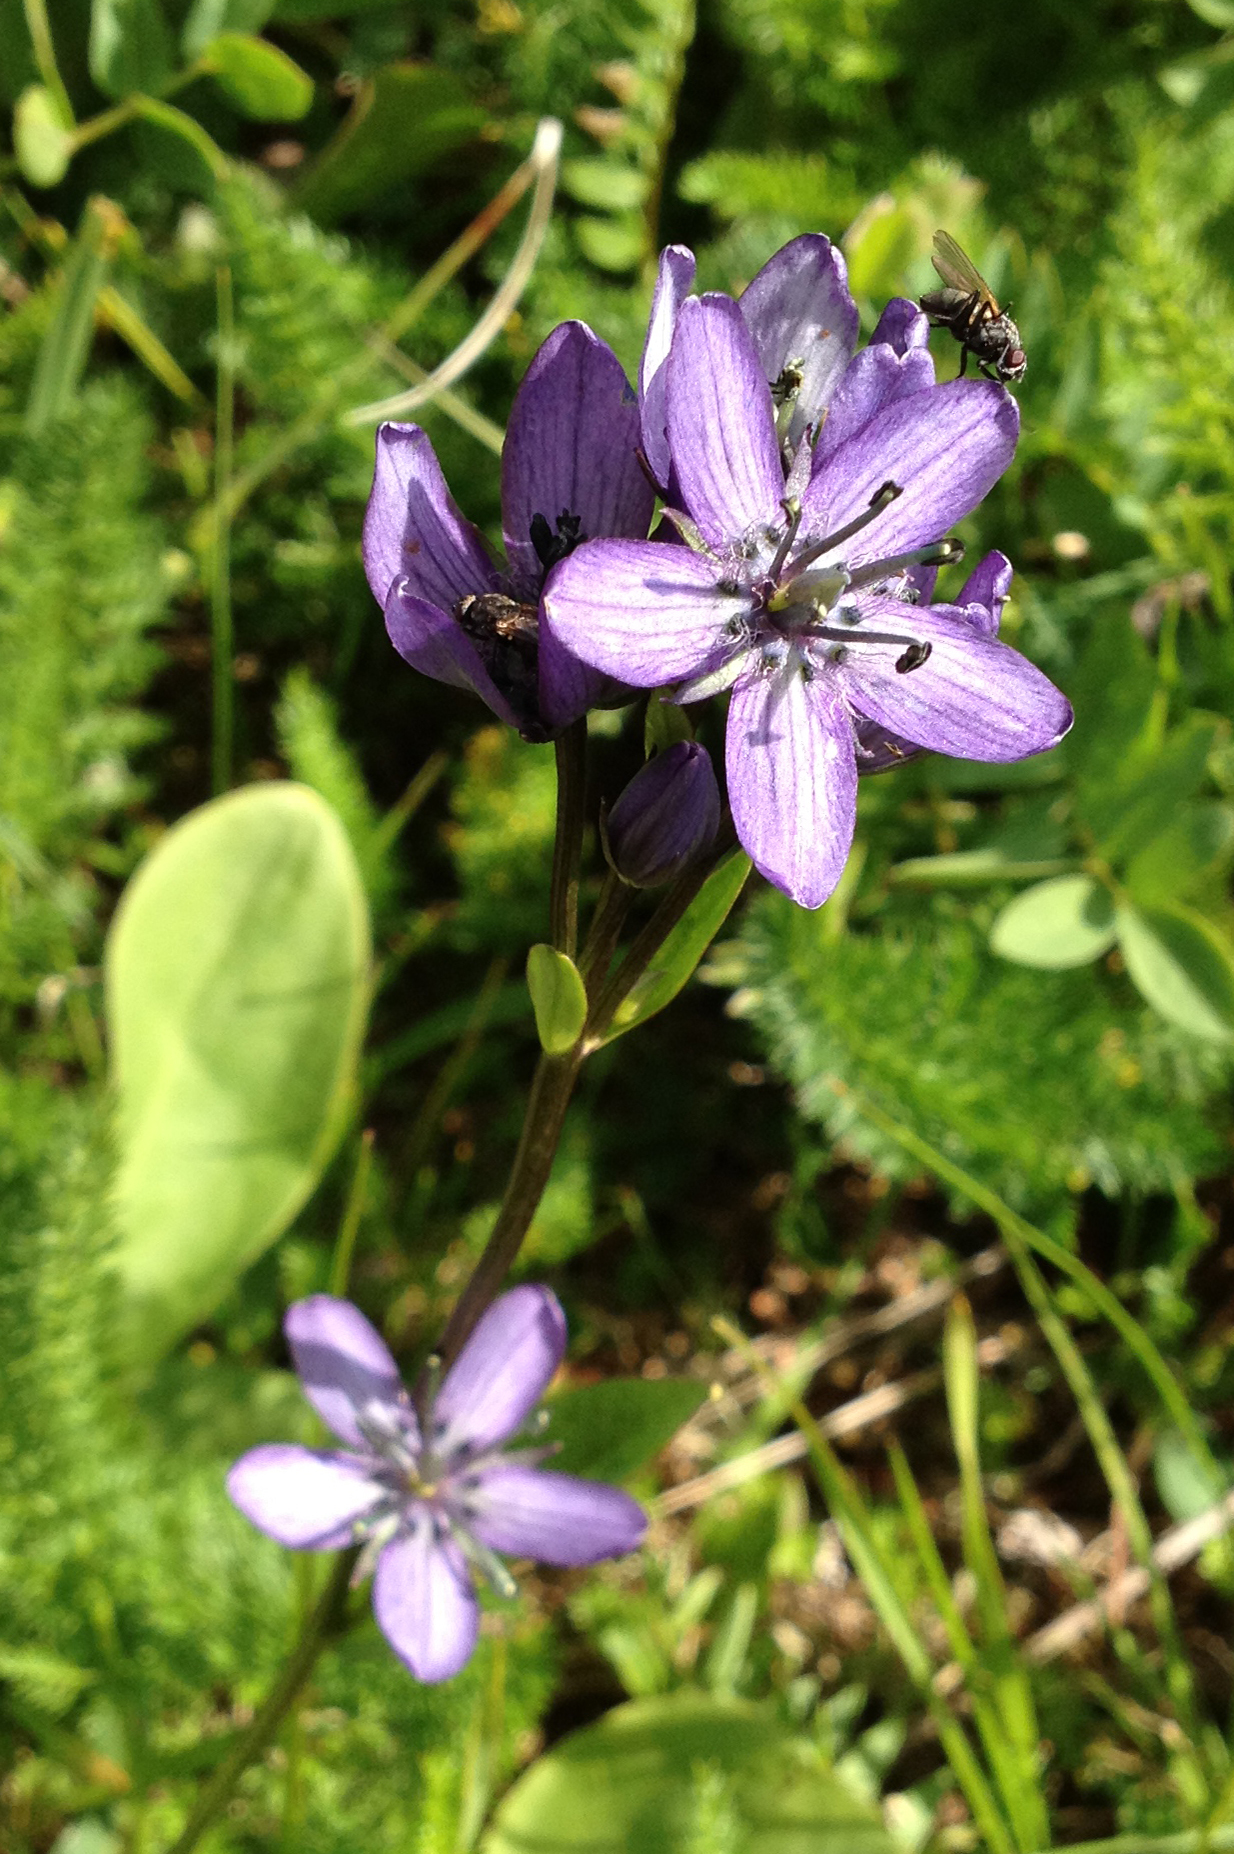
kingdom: Plantae
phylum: Tracheophyta
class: Magnoliopsida
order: Gentianales
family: Gentianaceae
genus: Swertia
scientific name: Swertia obtusa
